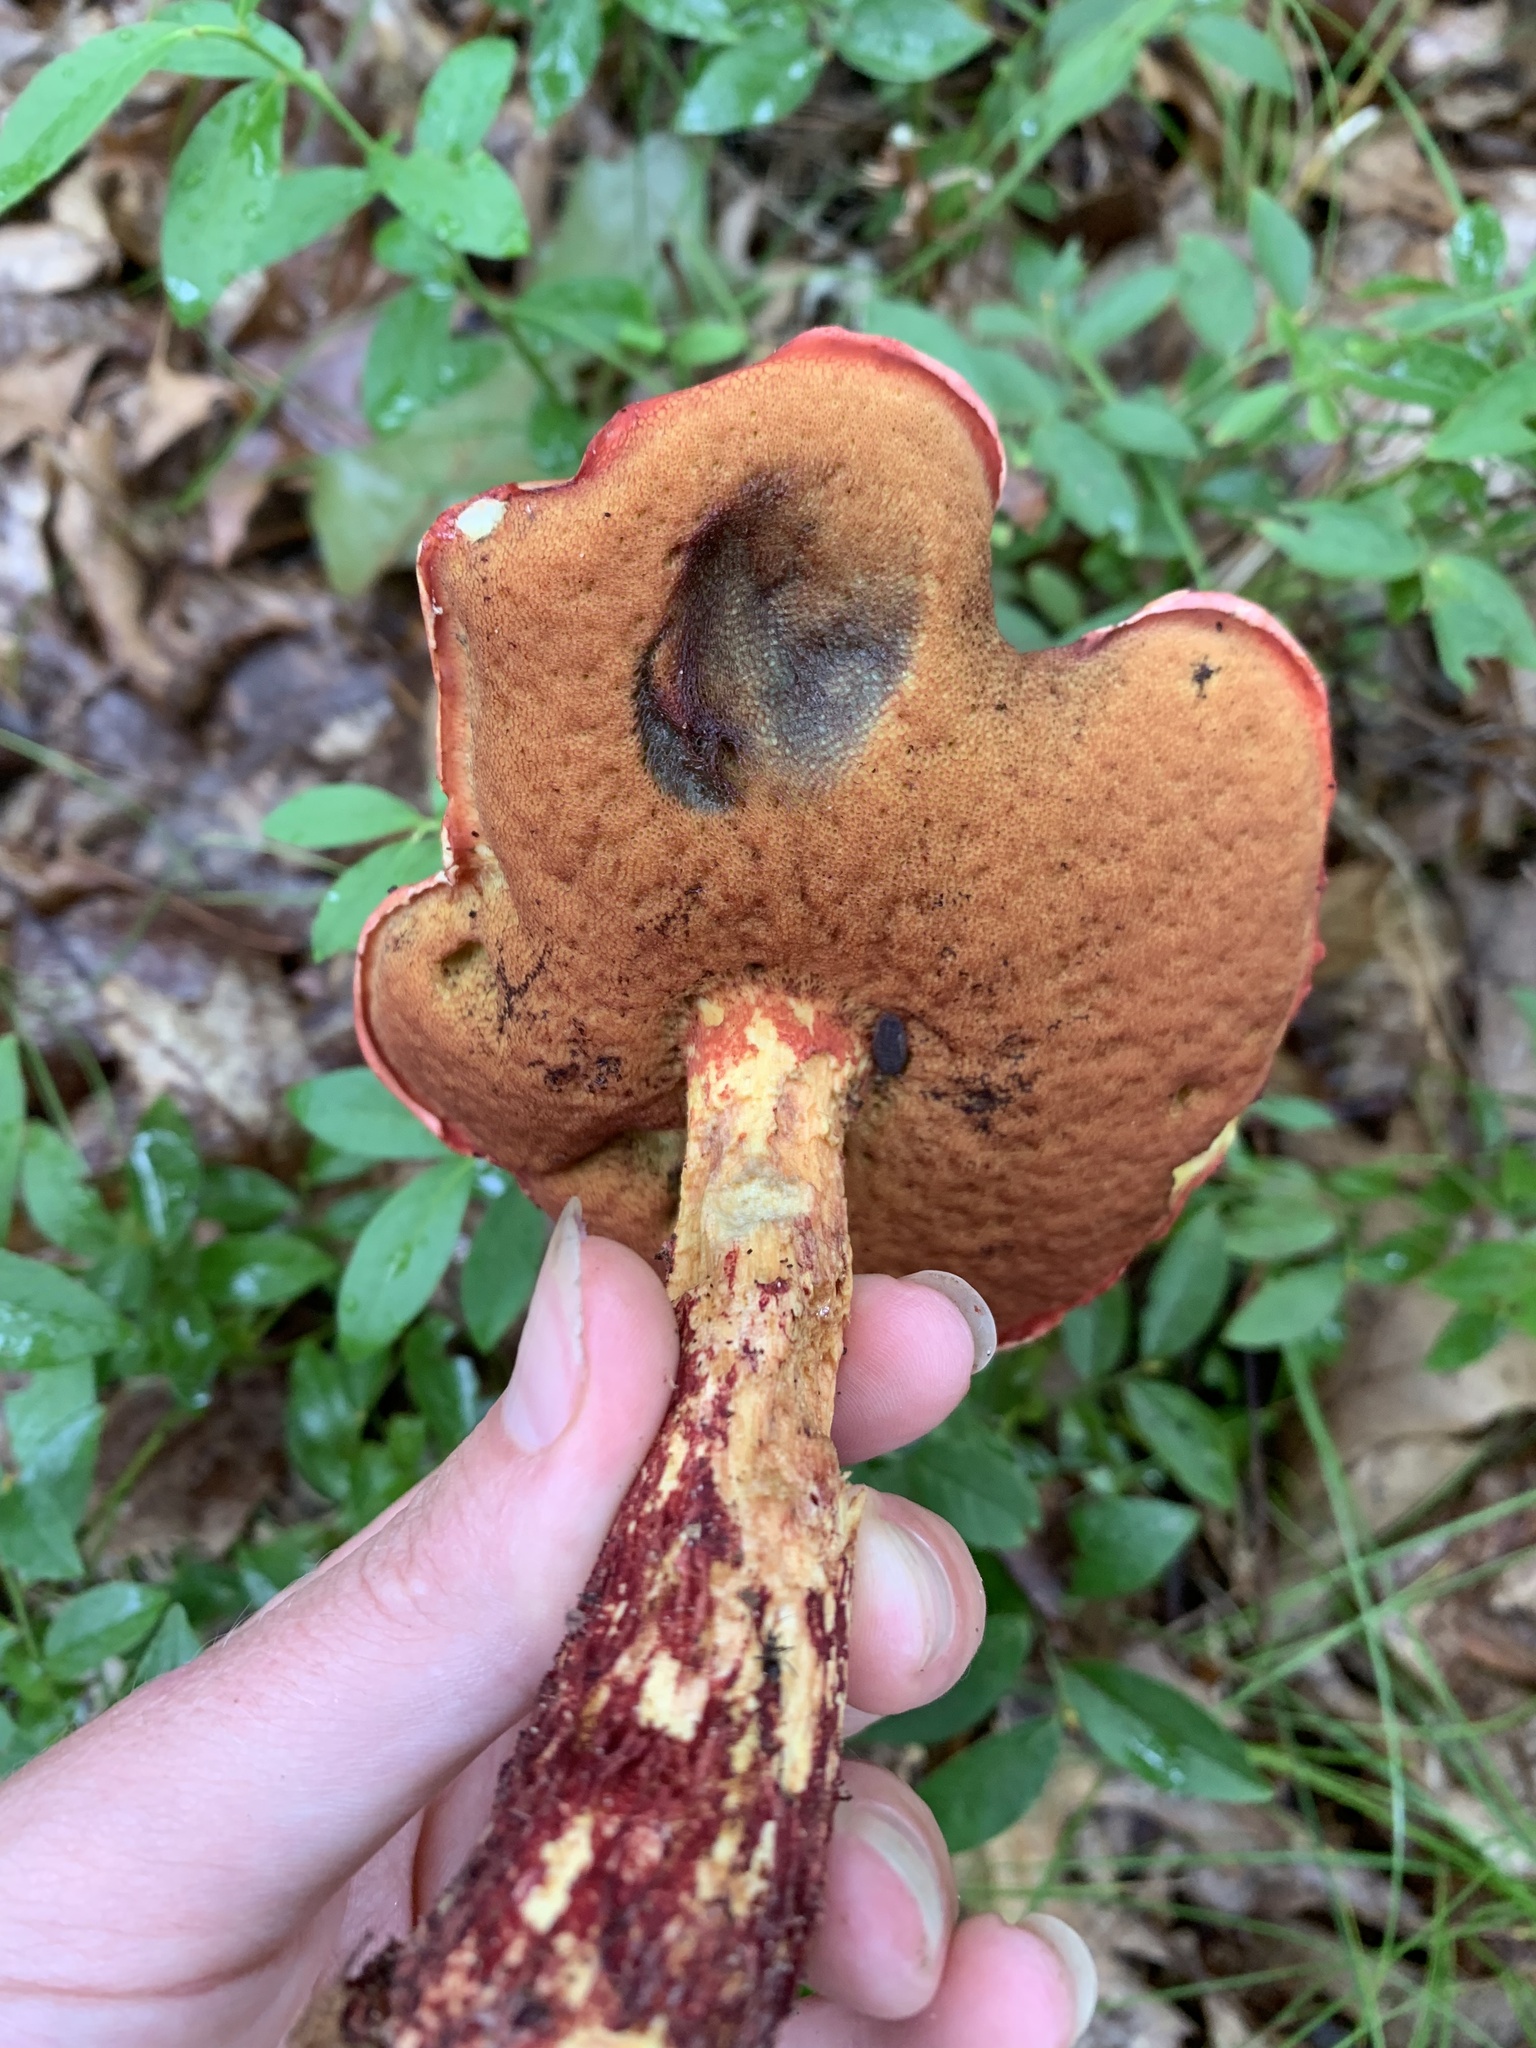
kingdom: Fungi
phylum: Basidiomycota
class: Agaricomycetes
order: Boletales
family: Boletaceae
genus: Butyriboletus
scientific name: Butyriboletus frostii
